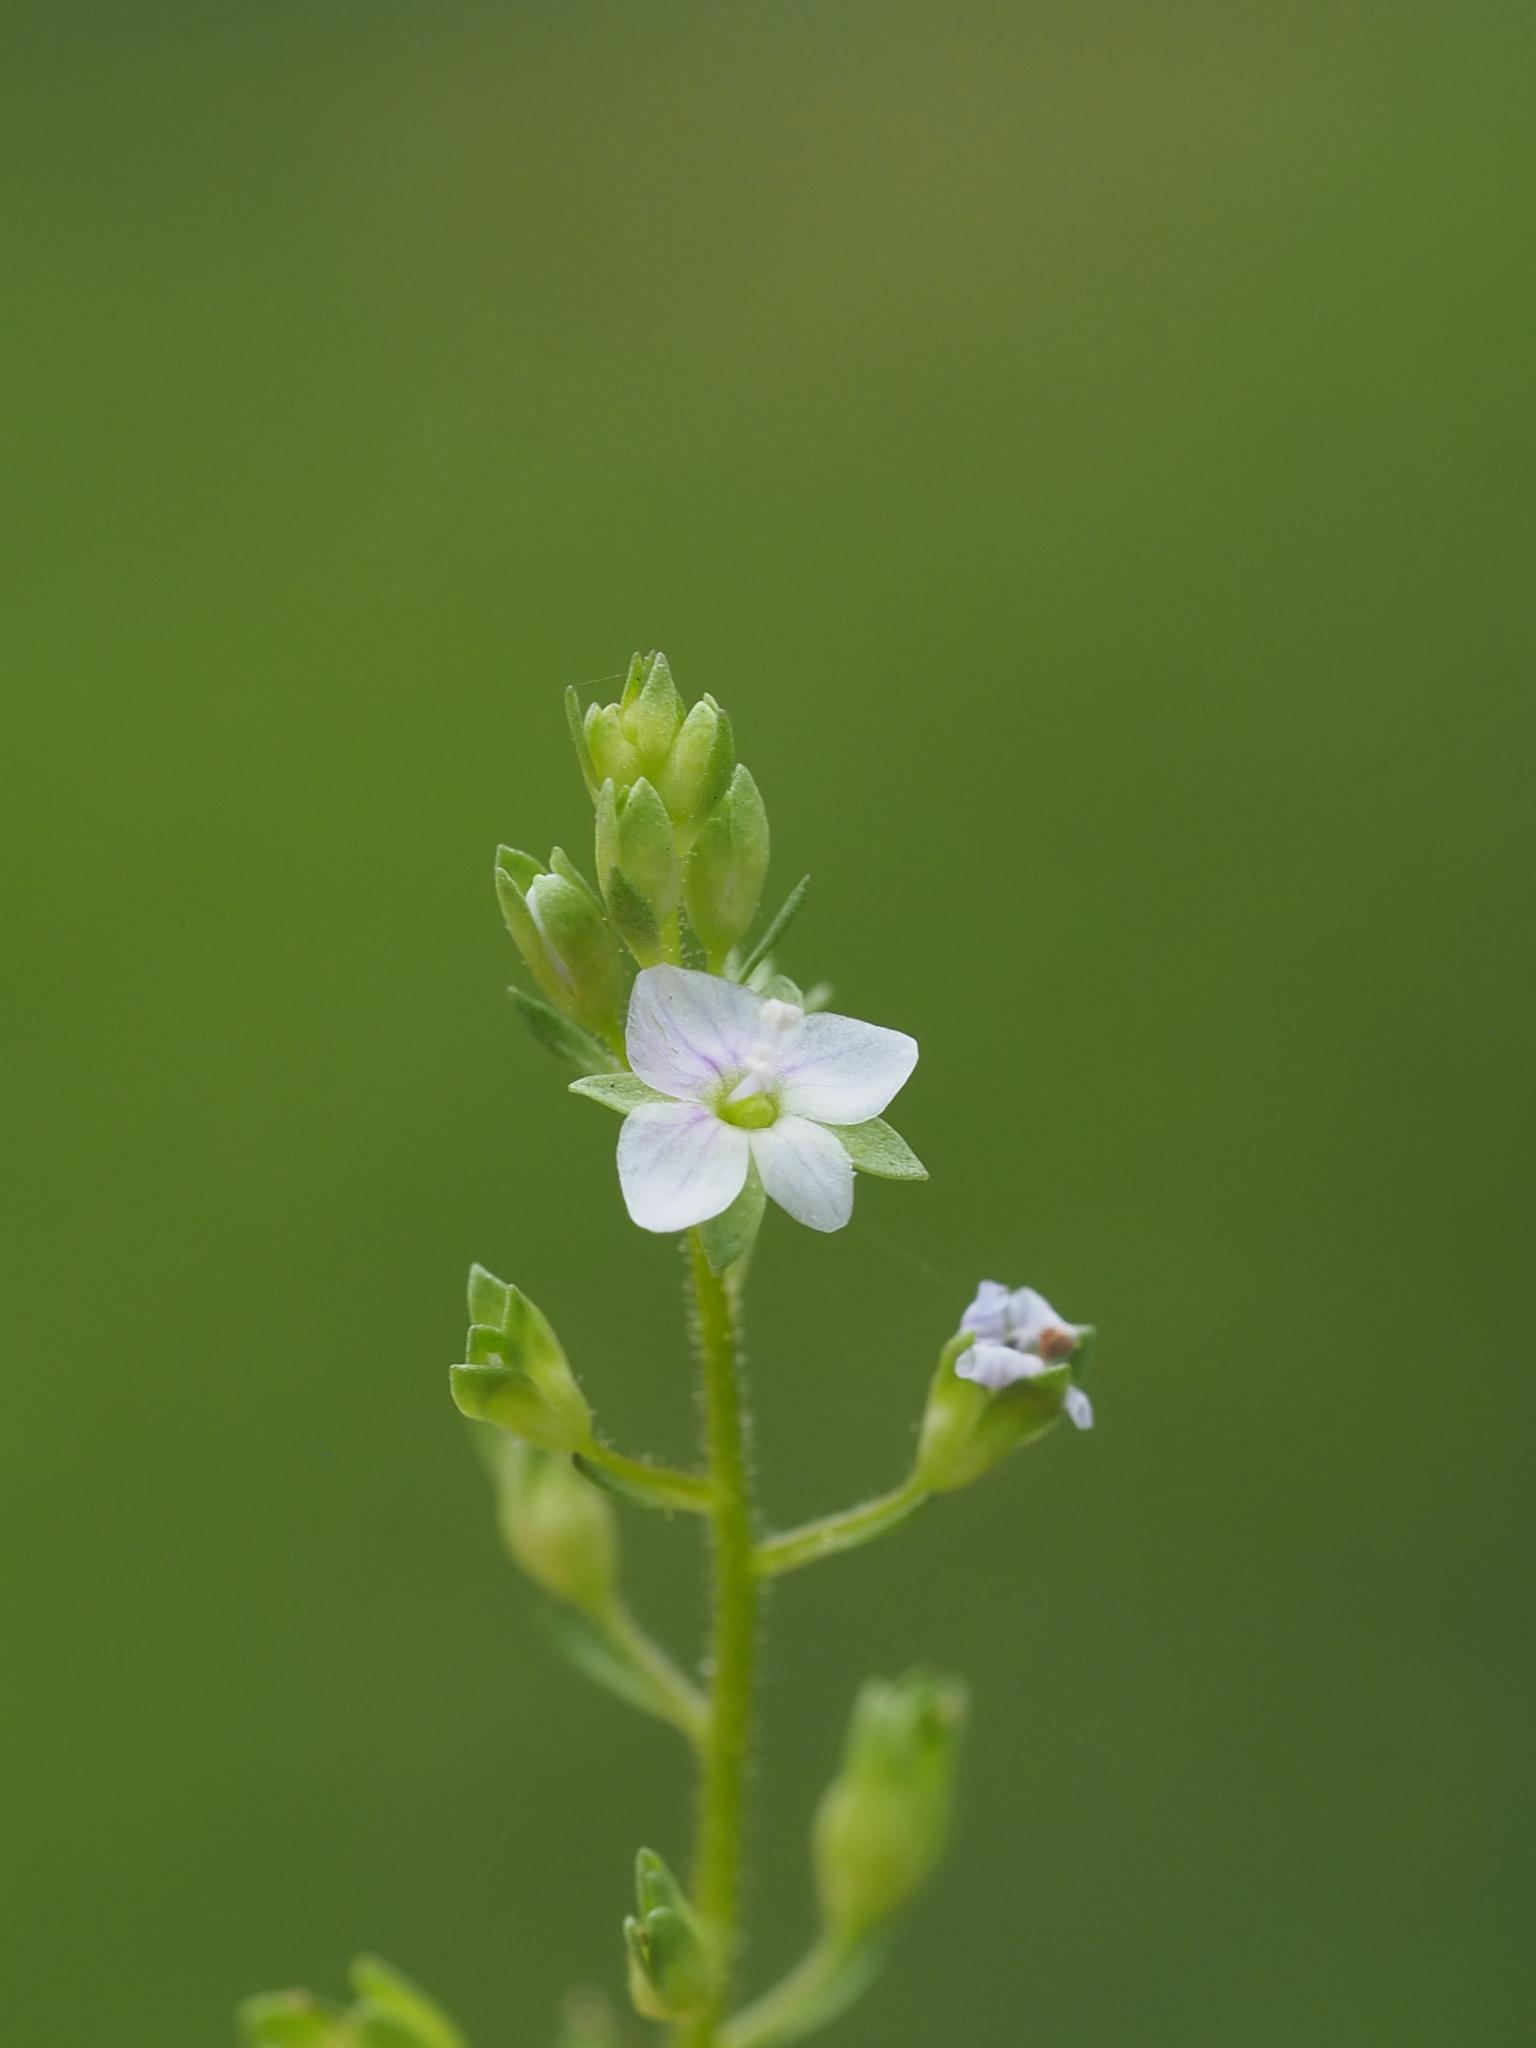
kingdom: Plantae
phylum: Tracheophyta
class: Magnoliopsida
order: Lamiales
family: Plantaginaceae
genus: Veronica
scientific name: Veronica undulata
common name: Undulate speedwell
